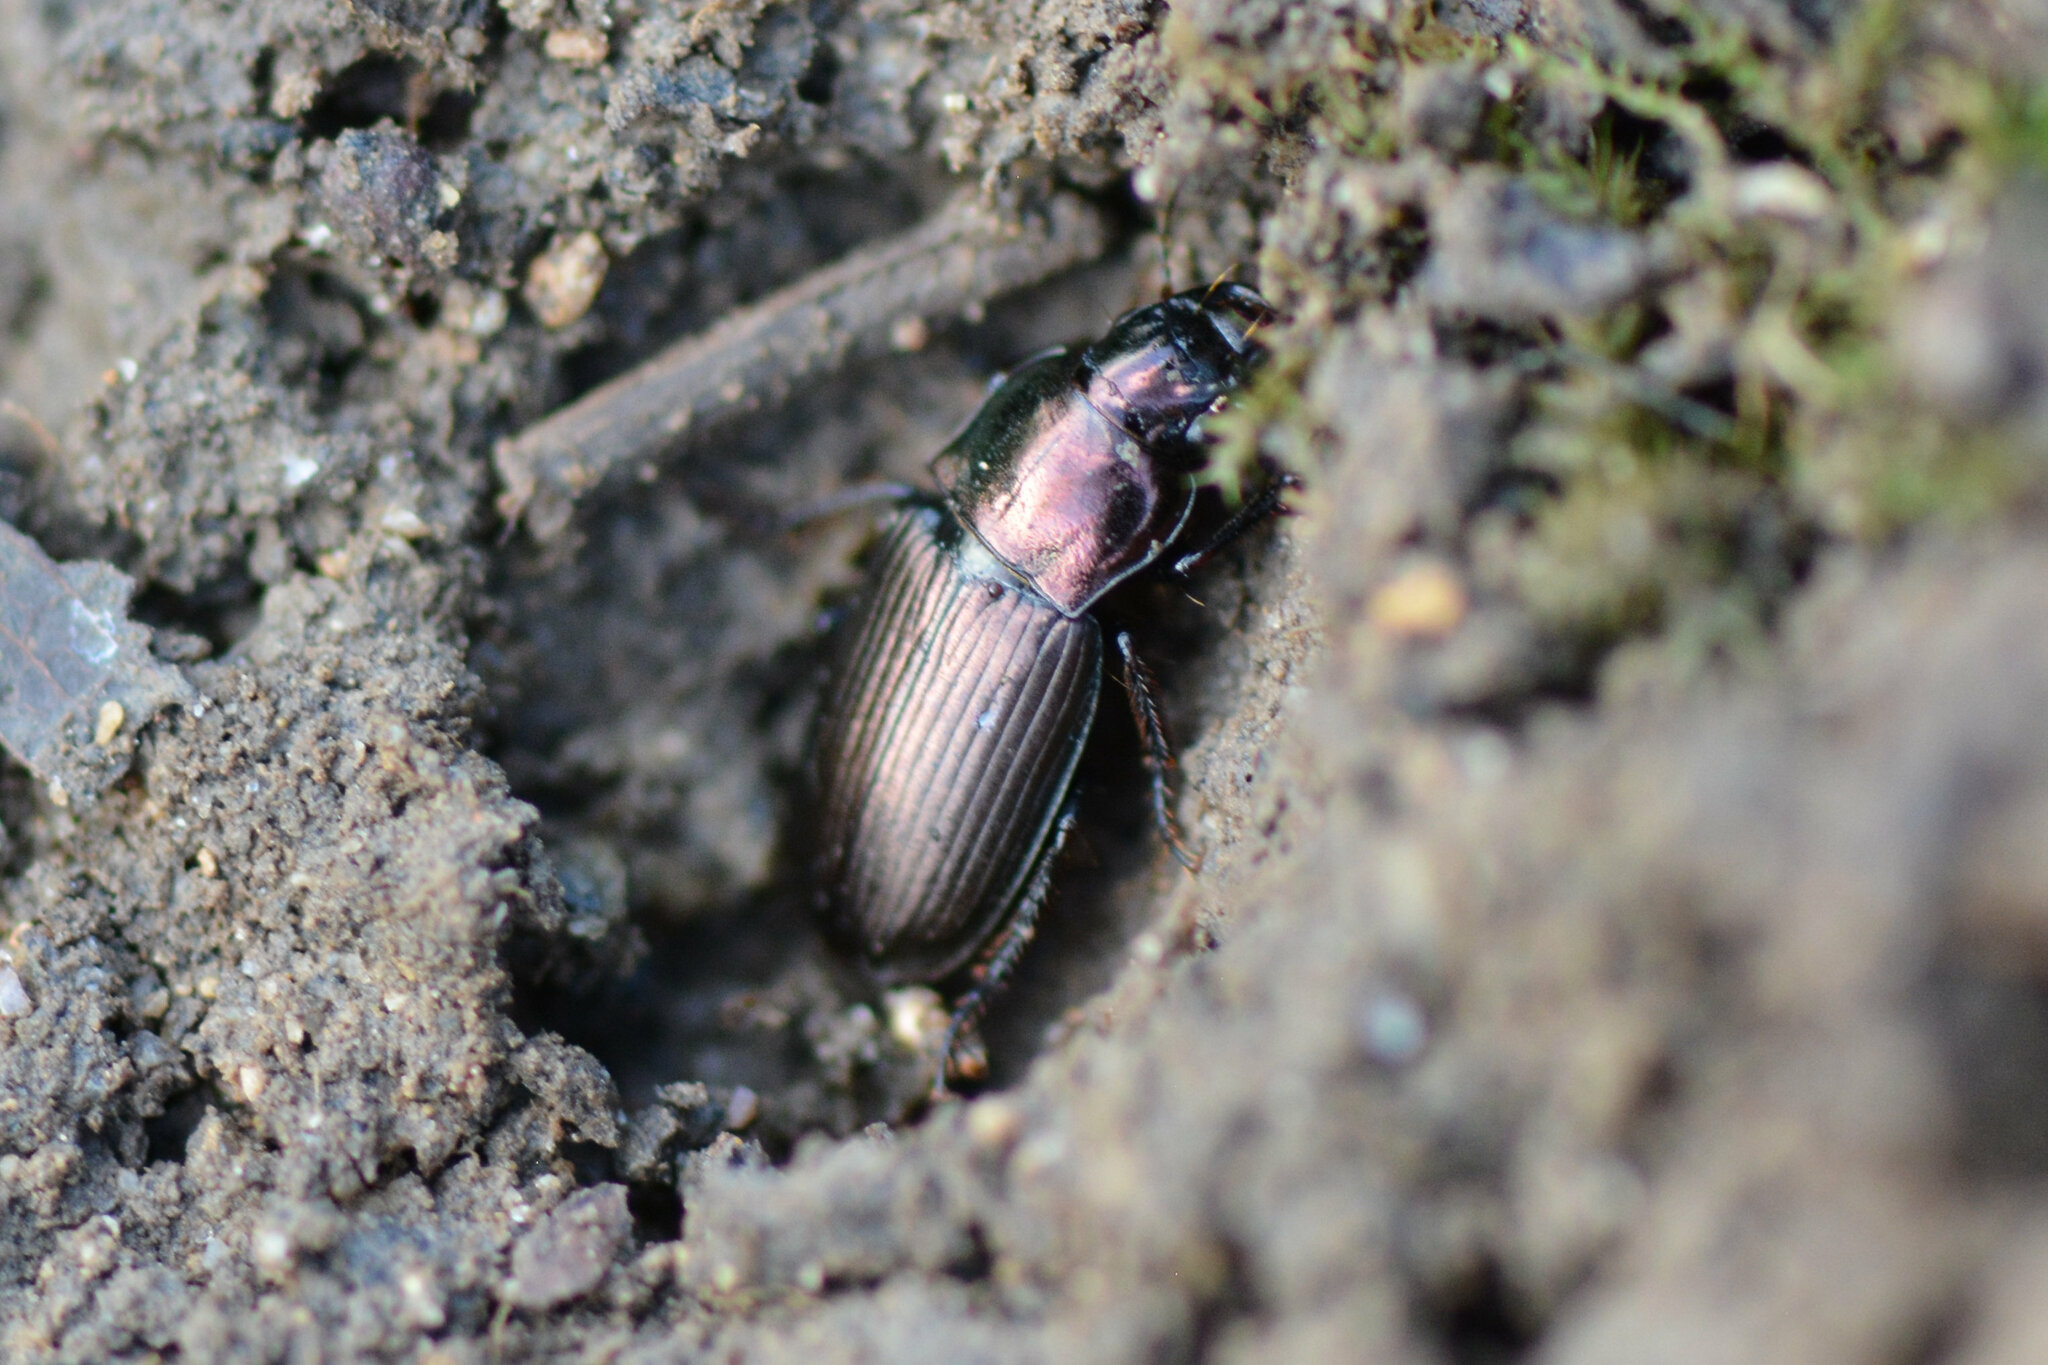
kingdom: Animalia
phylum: Arthropoda
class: Insecta
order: Coleoptera
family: Carabidae
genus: Harpalus
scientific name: Harpalus distinguendus
